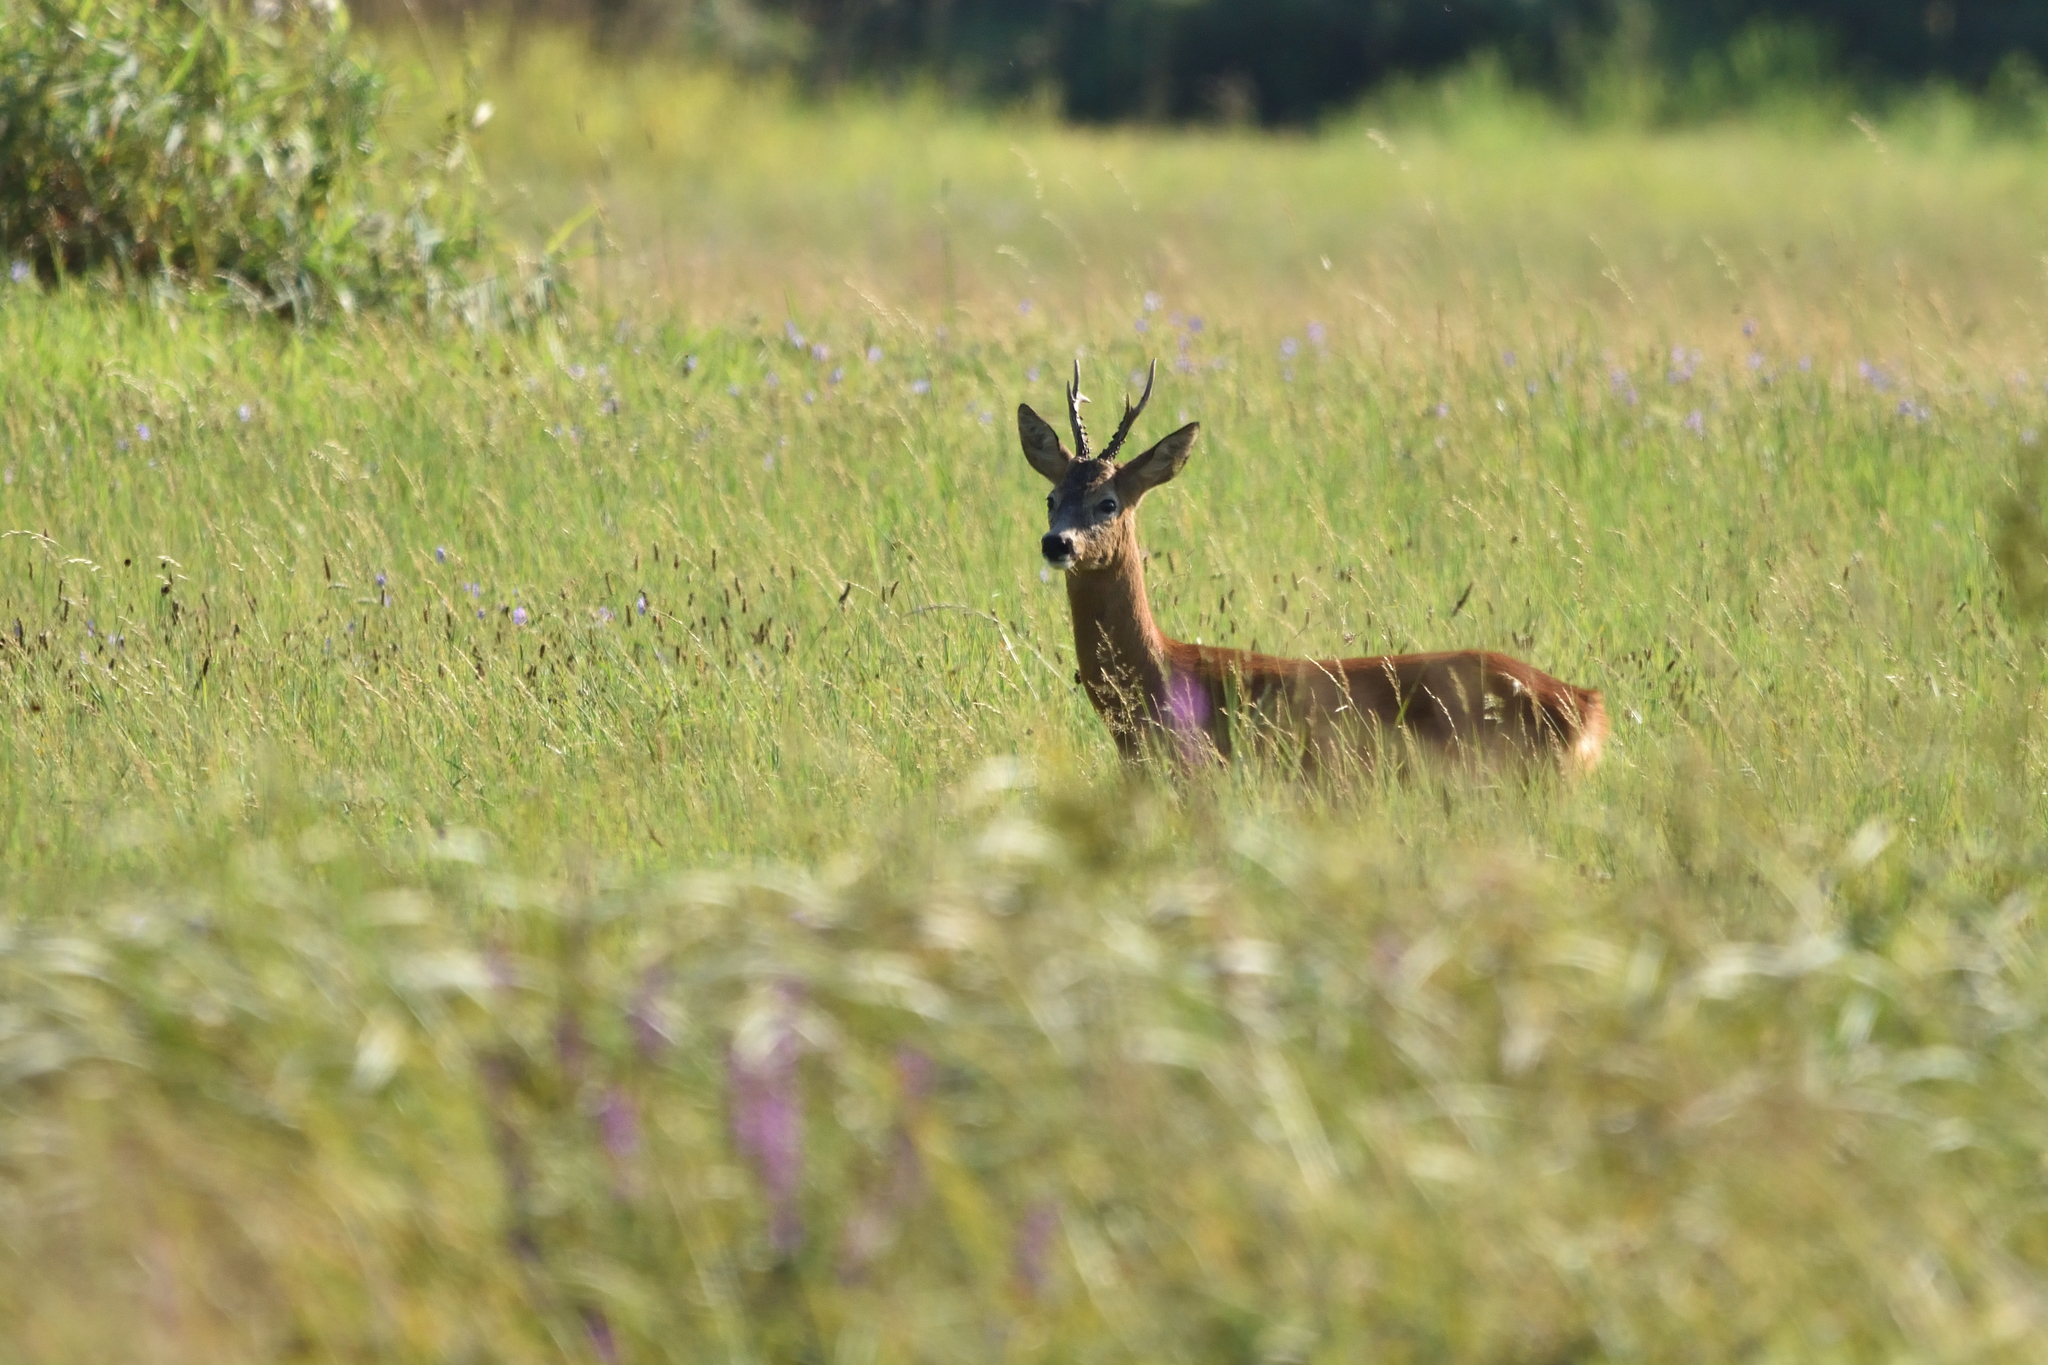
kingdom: Animalia
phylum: Chordata
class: Mammalia
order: Artiodactyla
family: Cervidae
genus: Capreolus
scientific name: Capreolus capreolus
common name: Western roe deer
